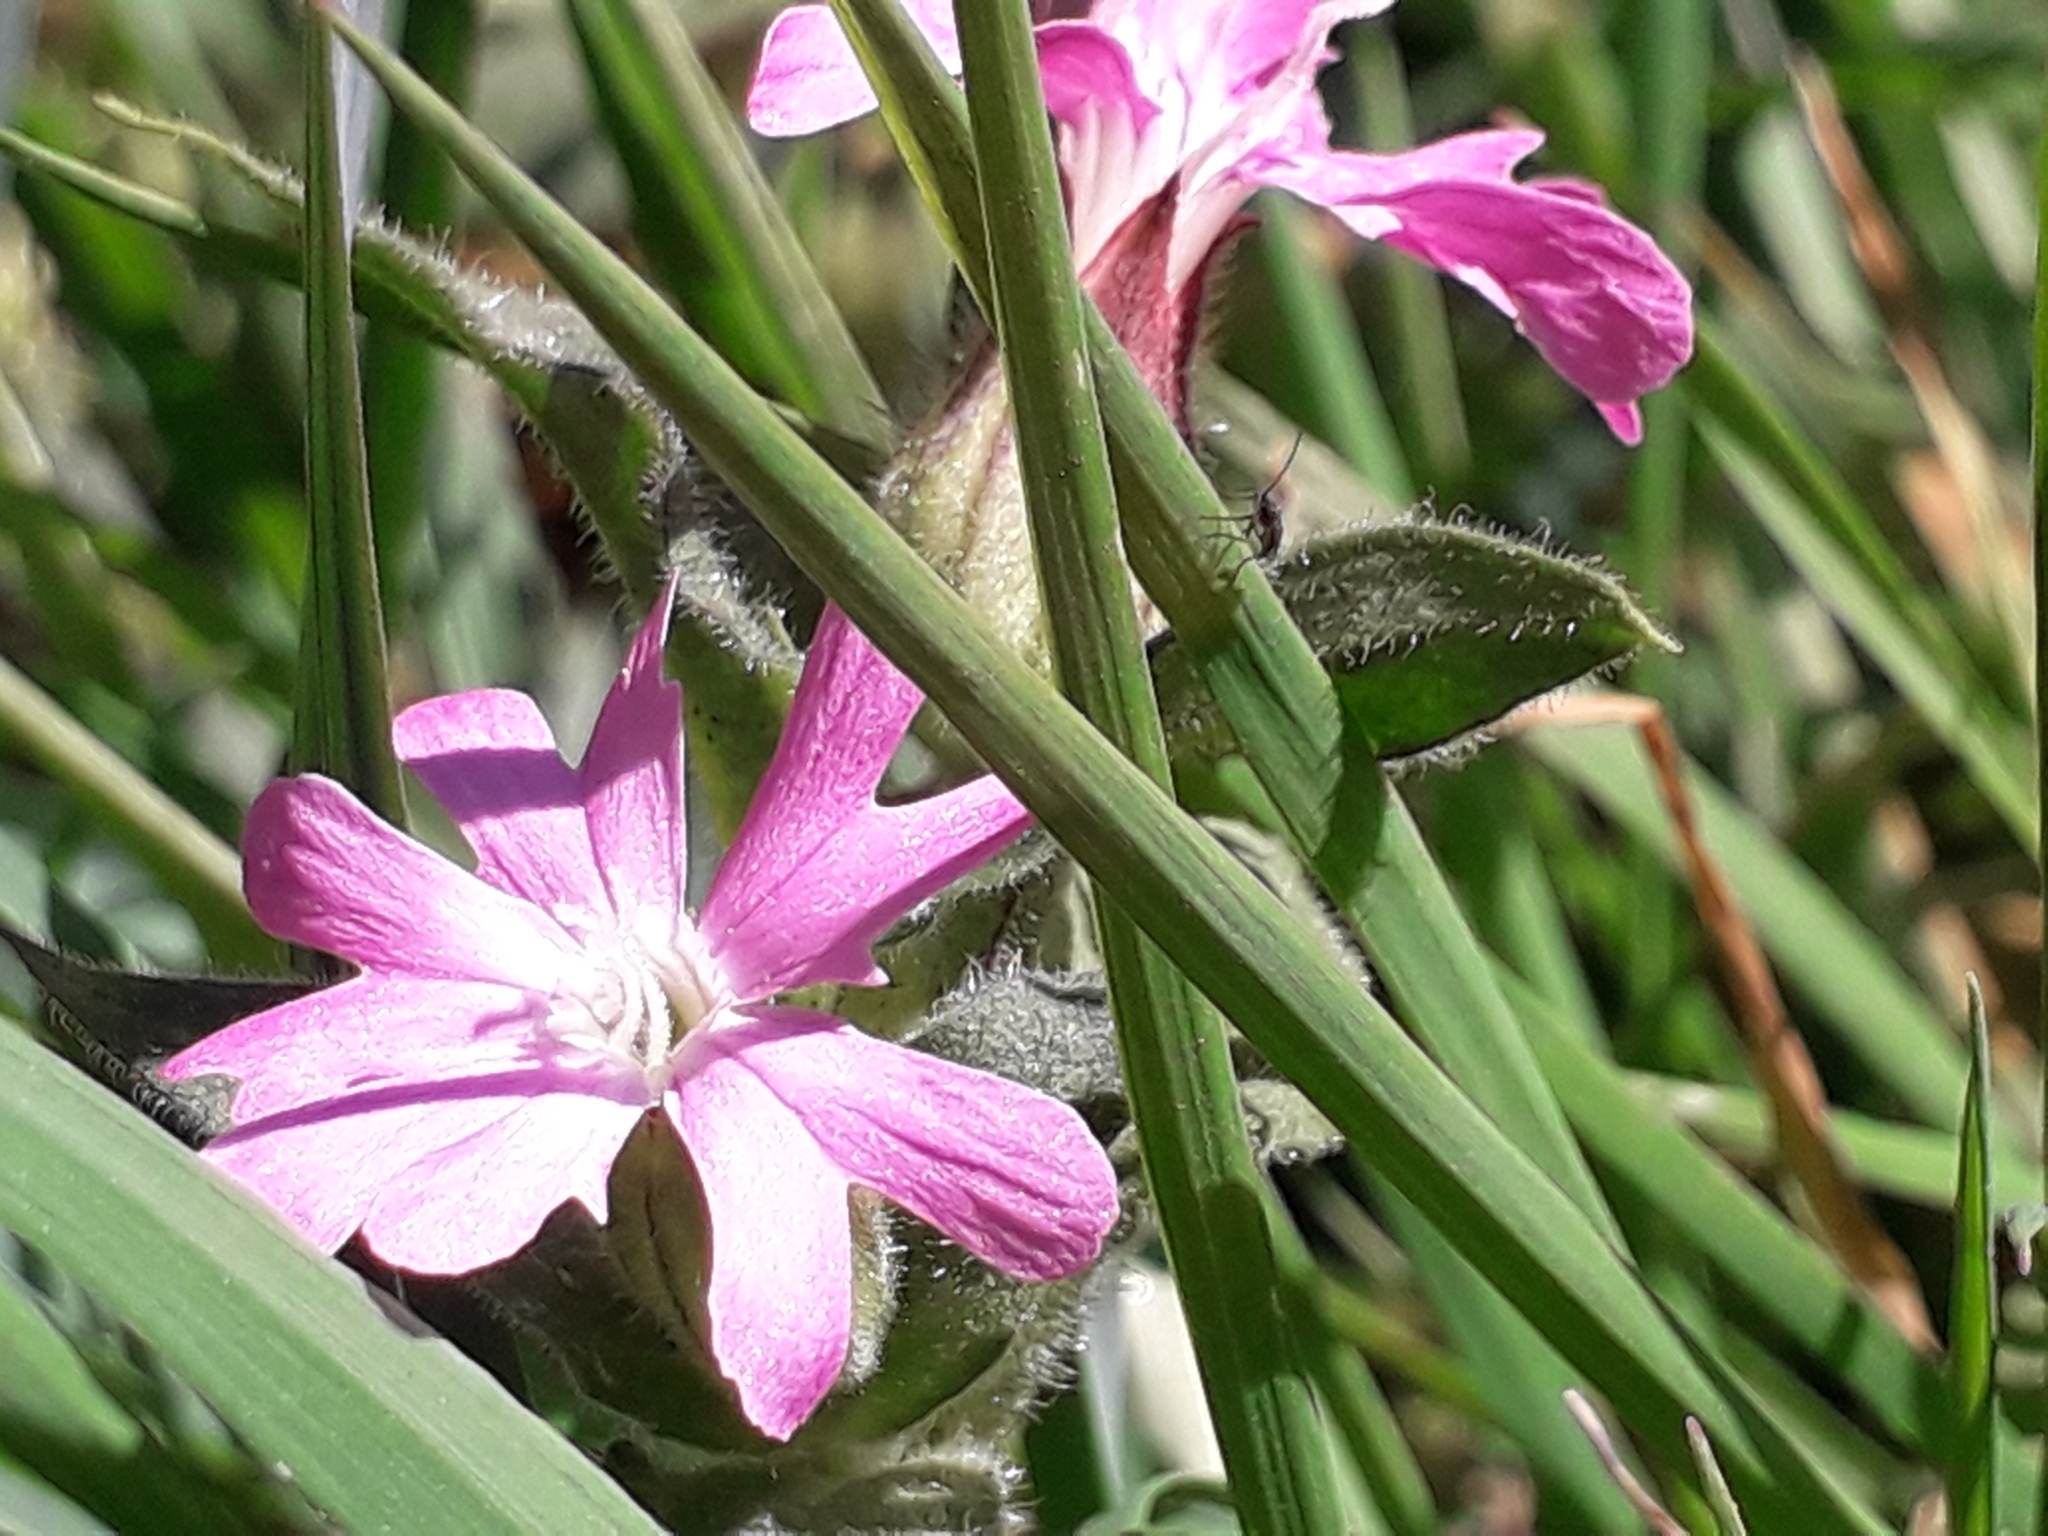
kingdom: Plantae
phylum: Tracheophyta
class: Magnoliopsida
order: Caryophyllales
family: Caryophyllaceae
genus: Silene
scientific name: Silene dioica
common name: Red campion
